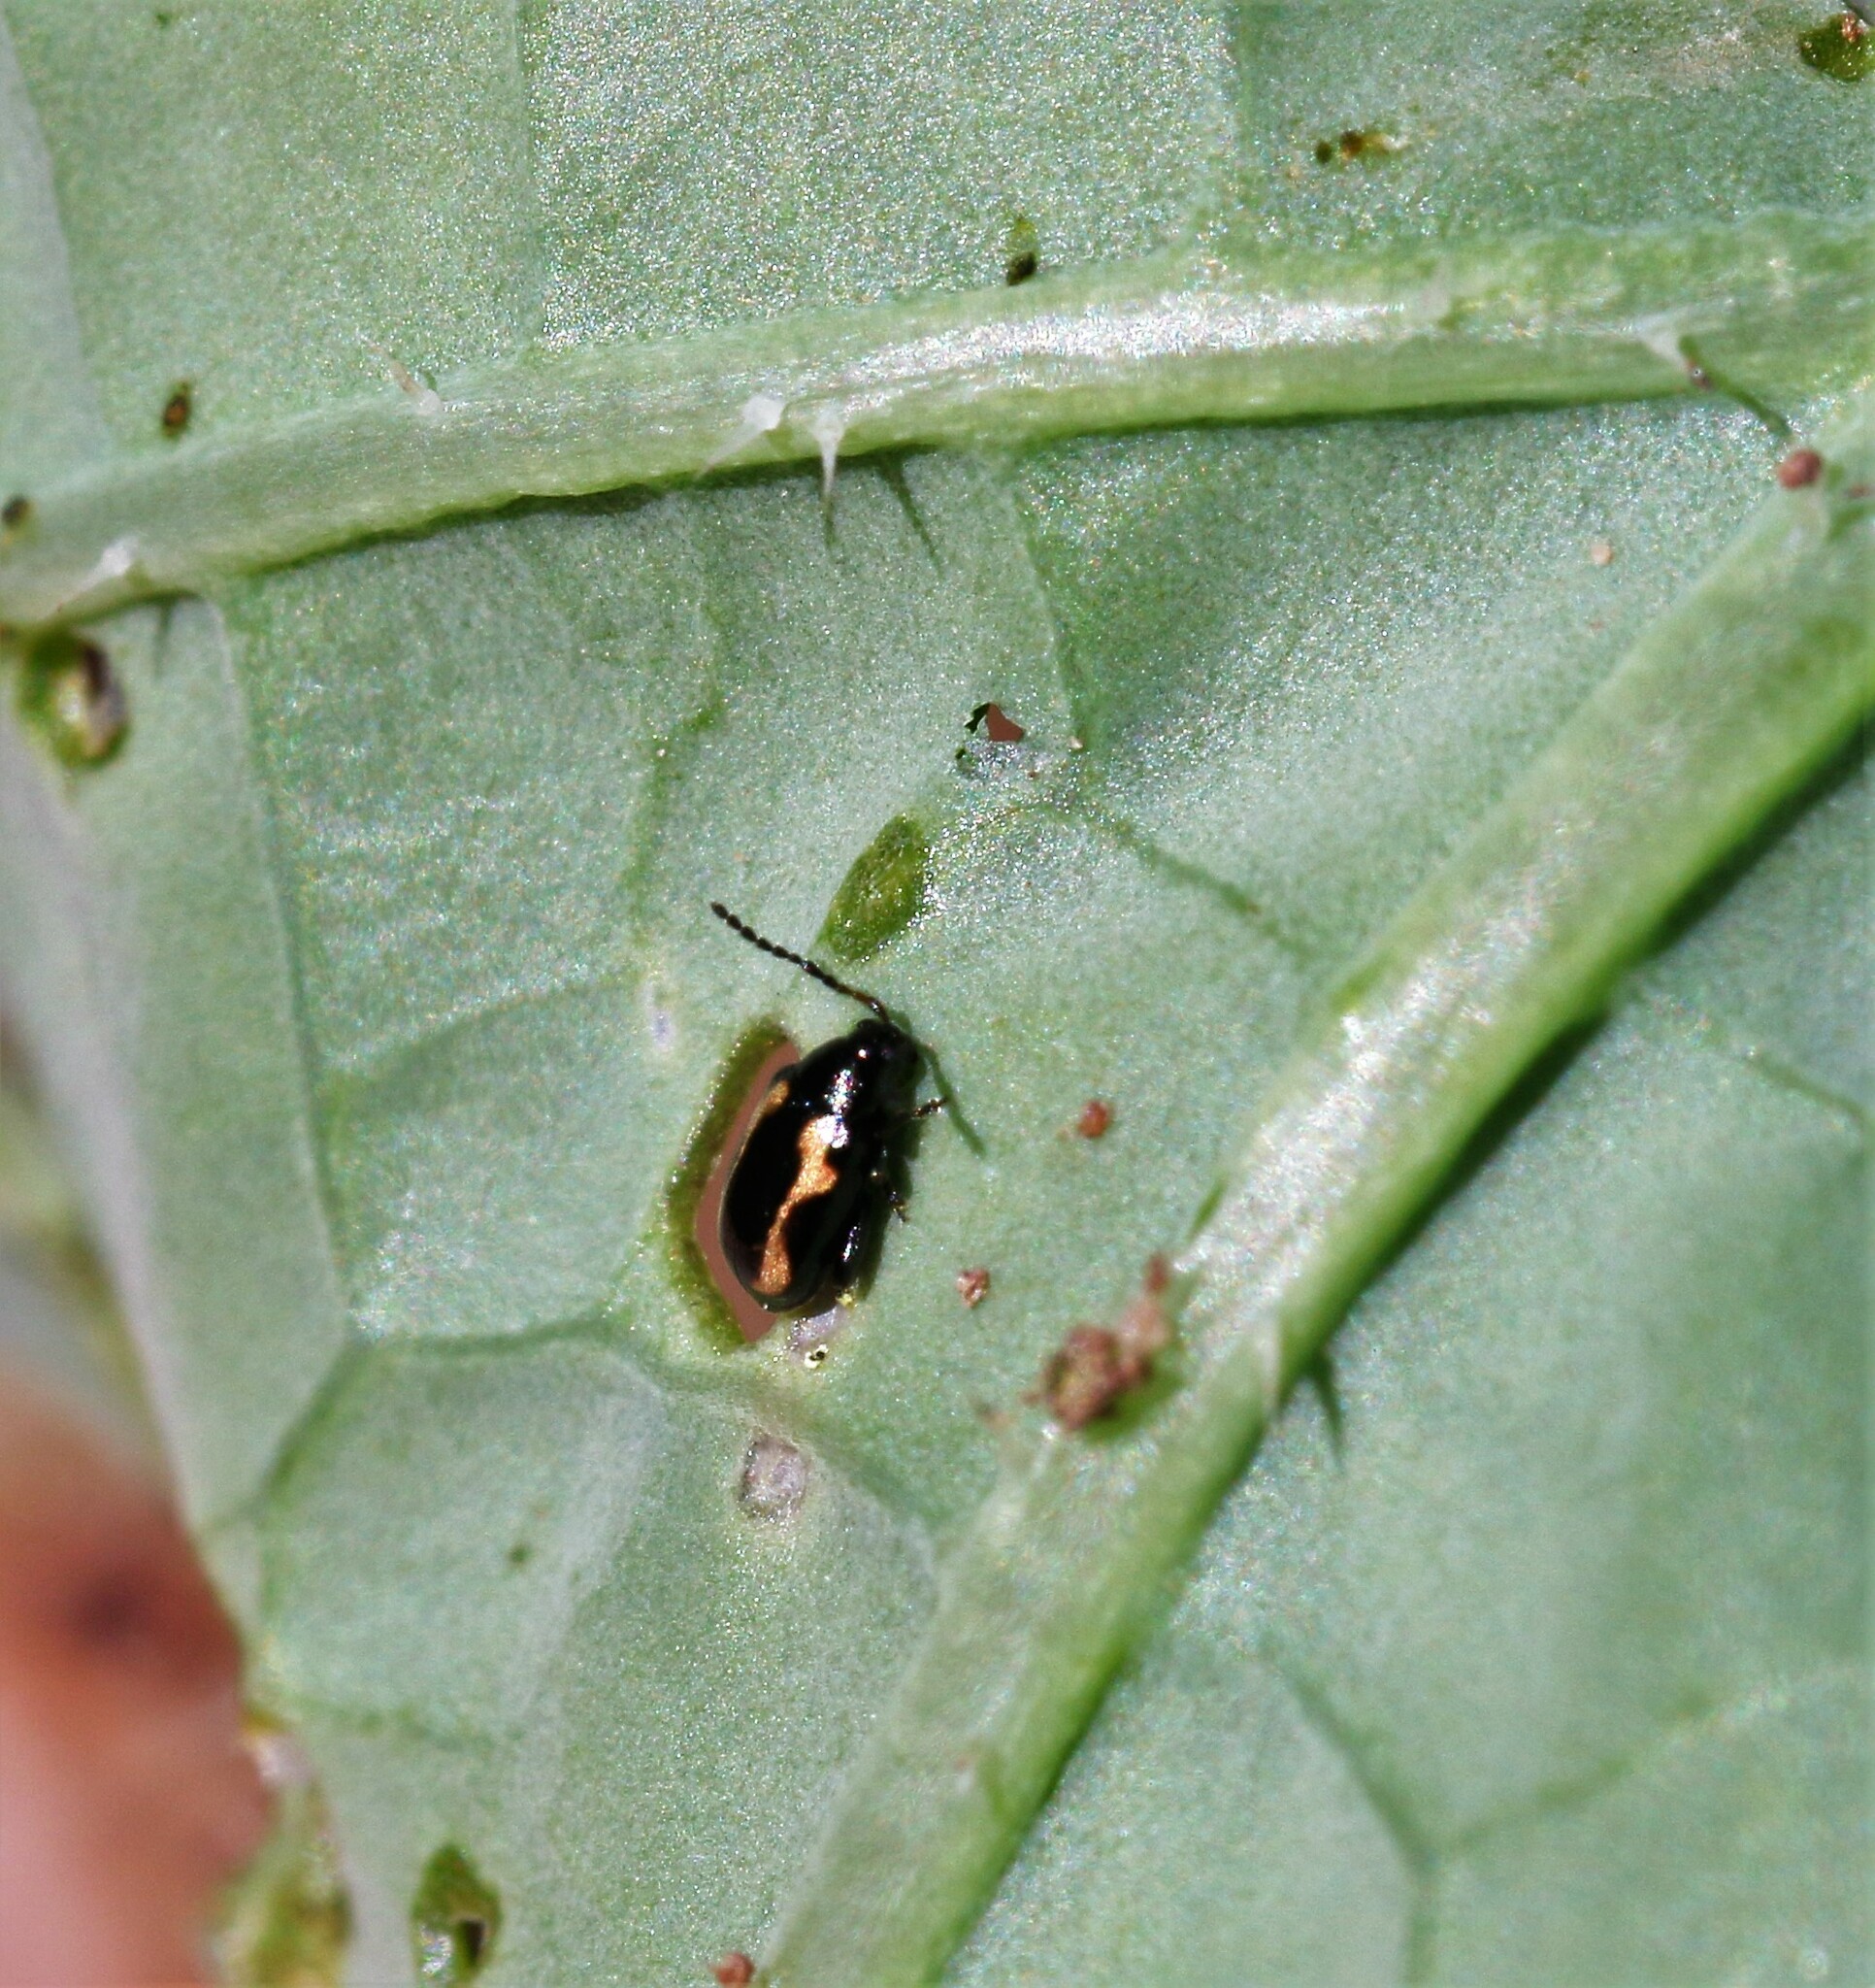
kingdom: Animalia
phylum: Arthropoda
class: Insecta
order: Coleoptera
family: Chrysomelidae
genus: Phyllotreta
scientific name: Phyllotreta striolata
